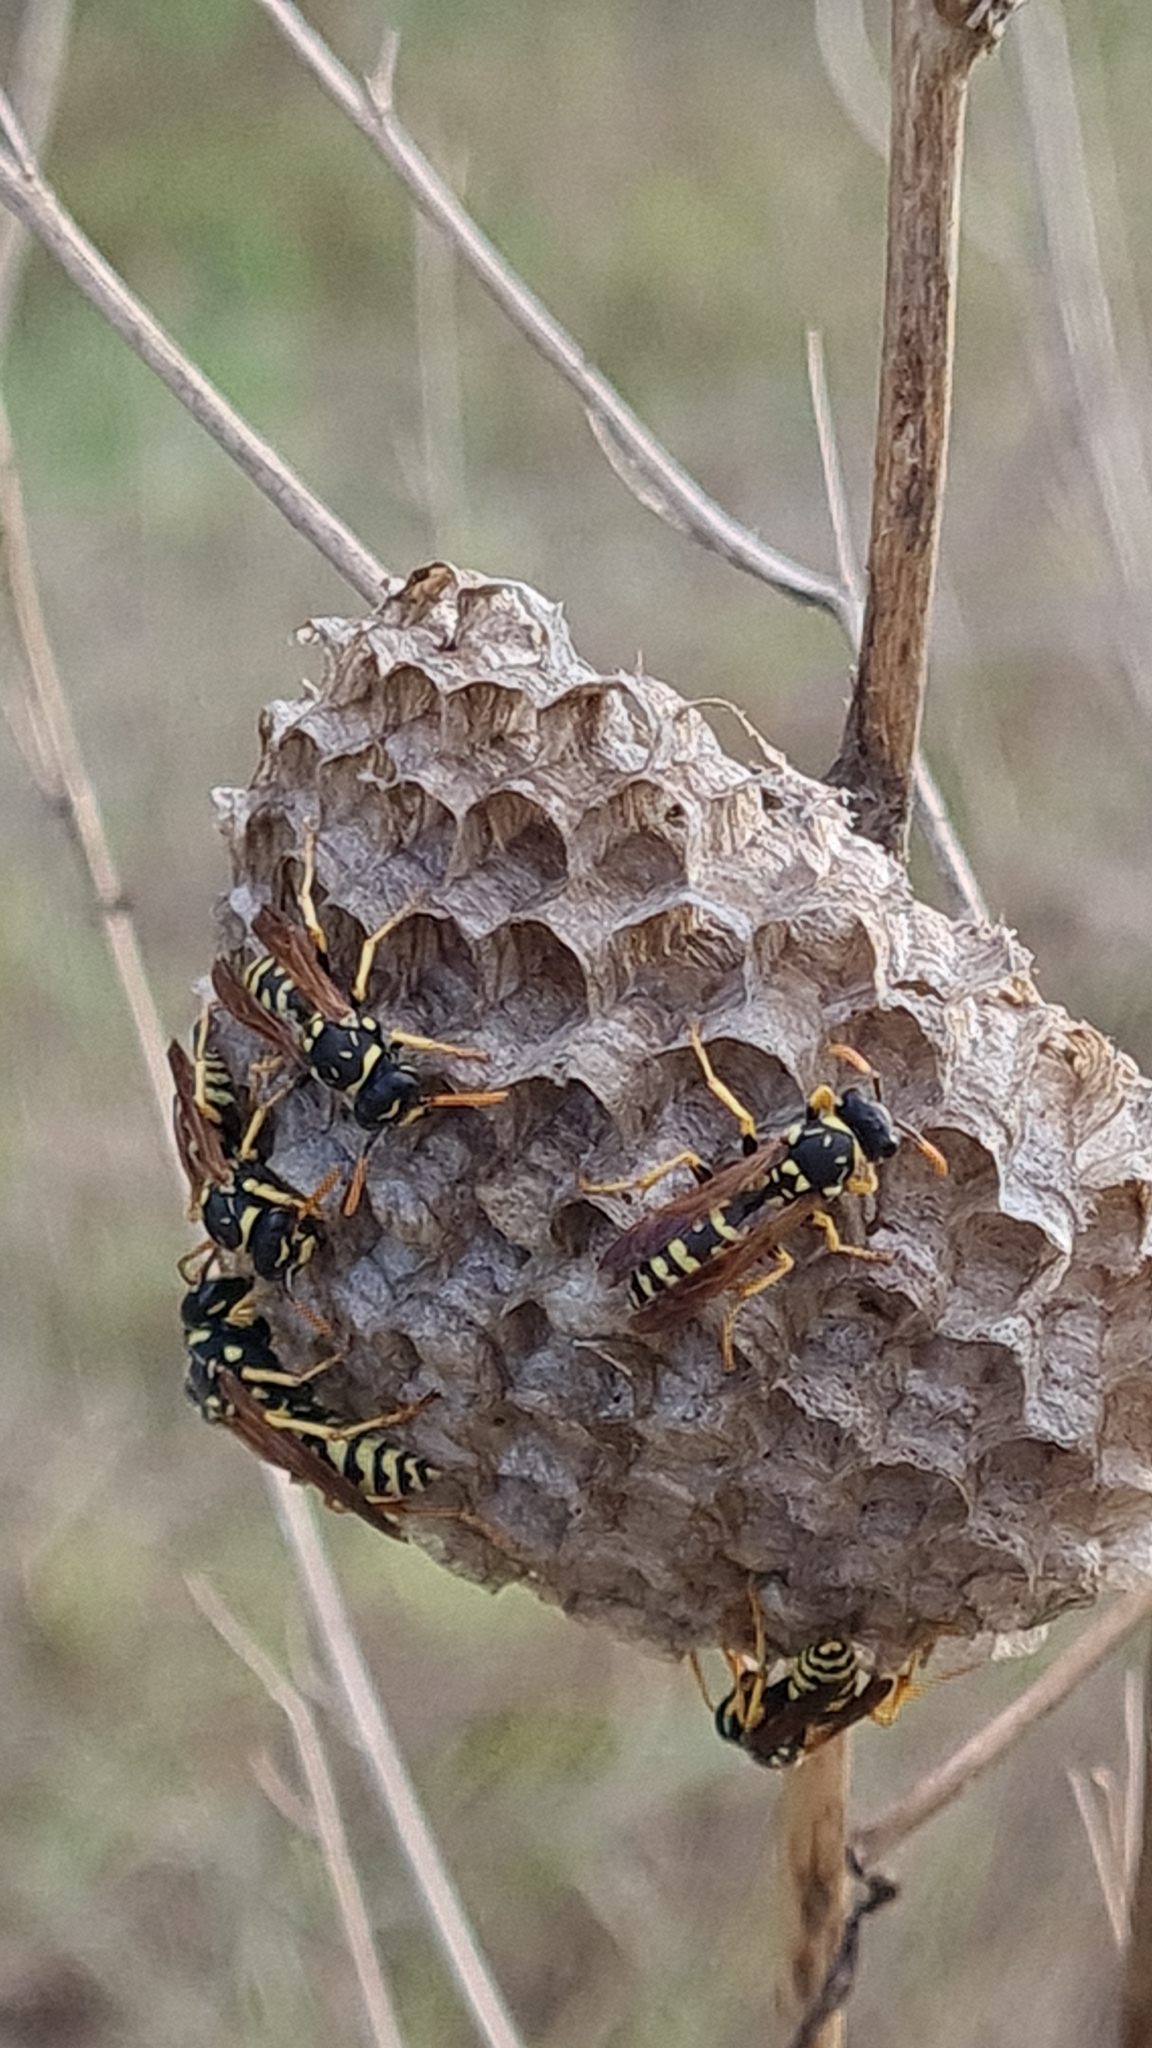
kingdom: Animalia
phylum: Arthropoda
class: Insecta
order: Hymenoptera
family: Eumenidae
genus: Polistes
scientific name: Polistes gallicus
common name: Paper wasp
